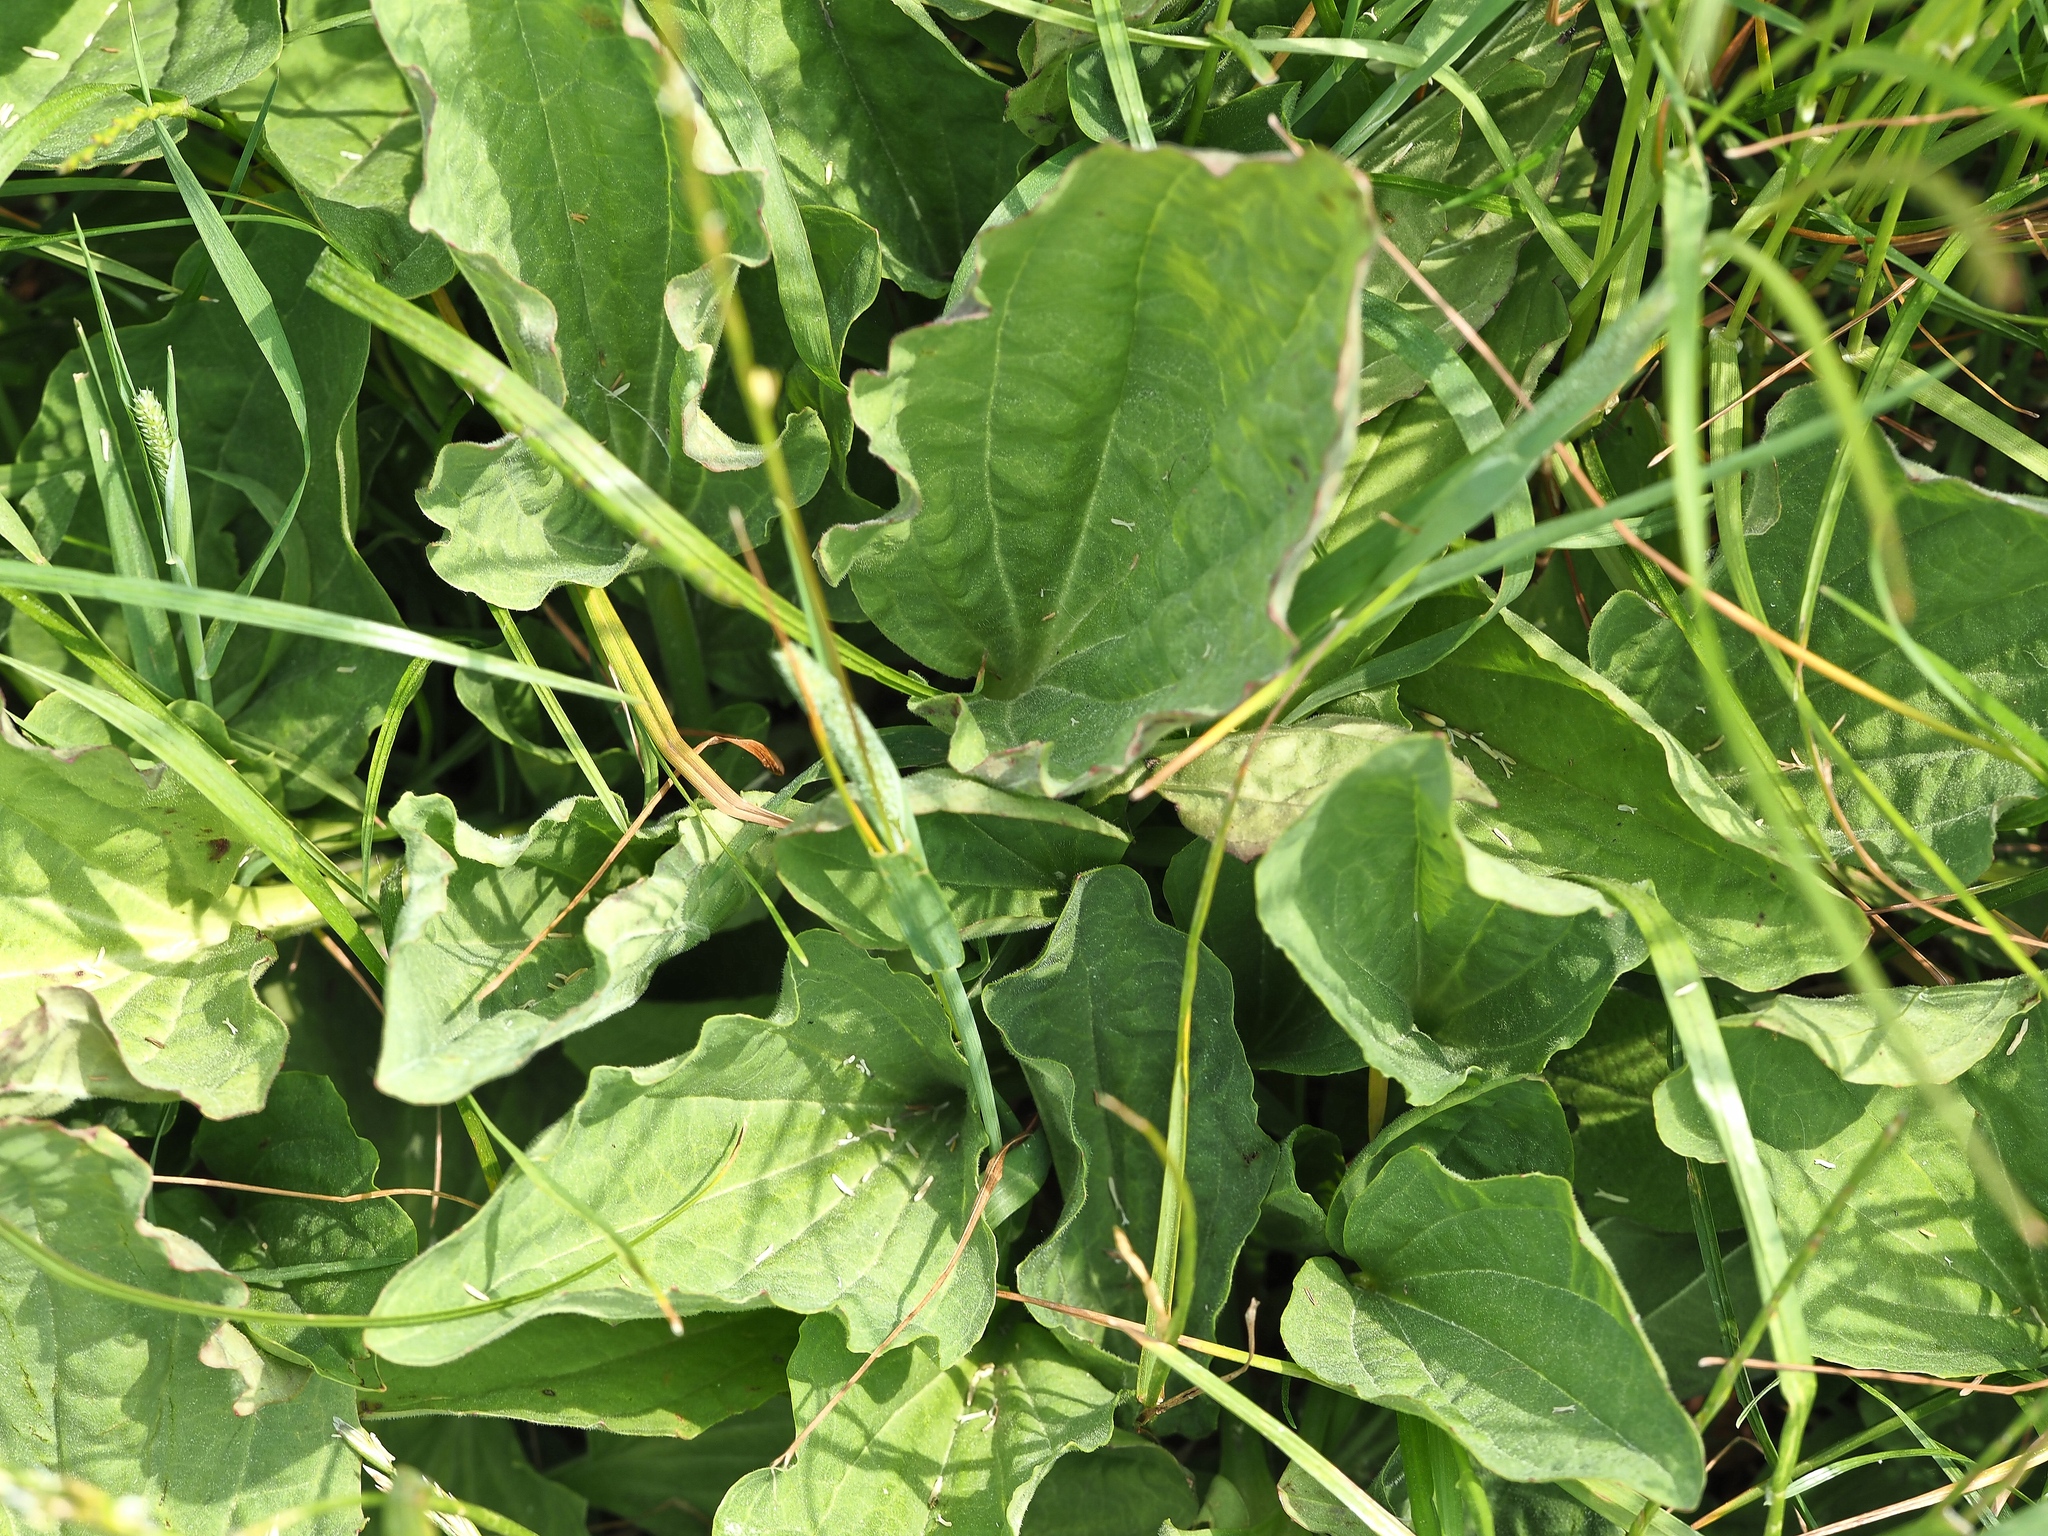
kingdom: Plantae
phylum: Tracheophyta
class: Magnoliopsida
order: Lamiales
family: Plantaginaceae
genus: Plantago
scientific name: Plantago major
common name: Common plantain
